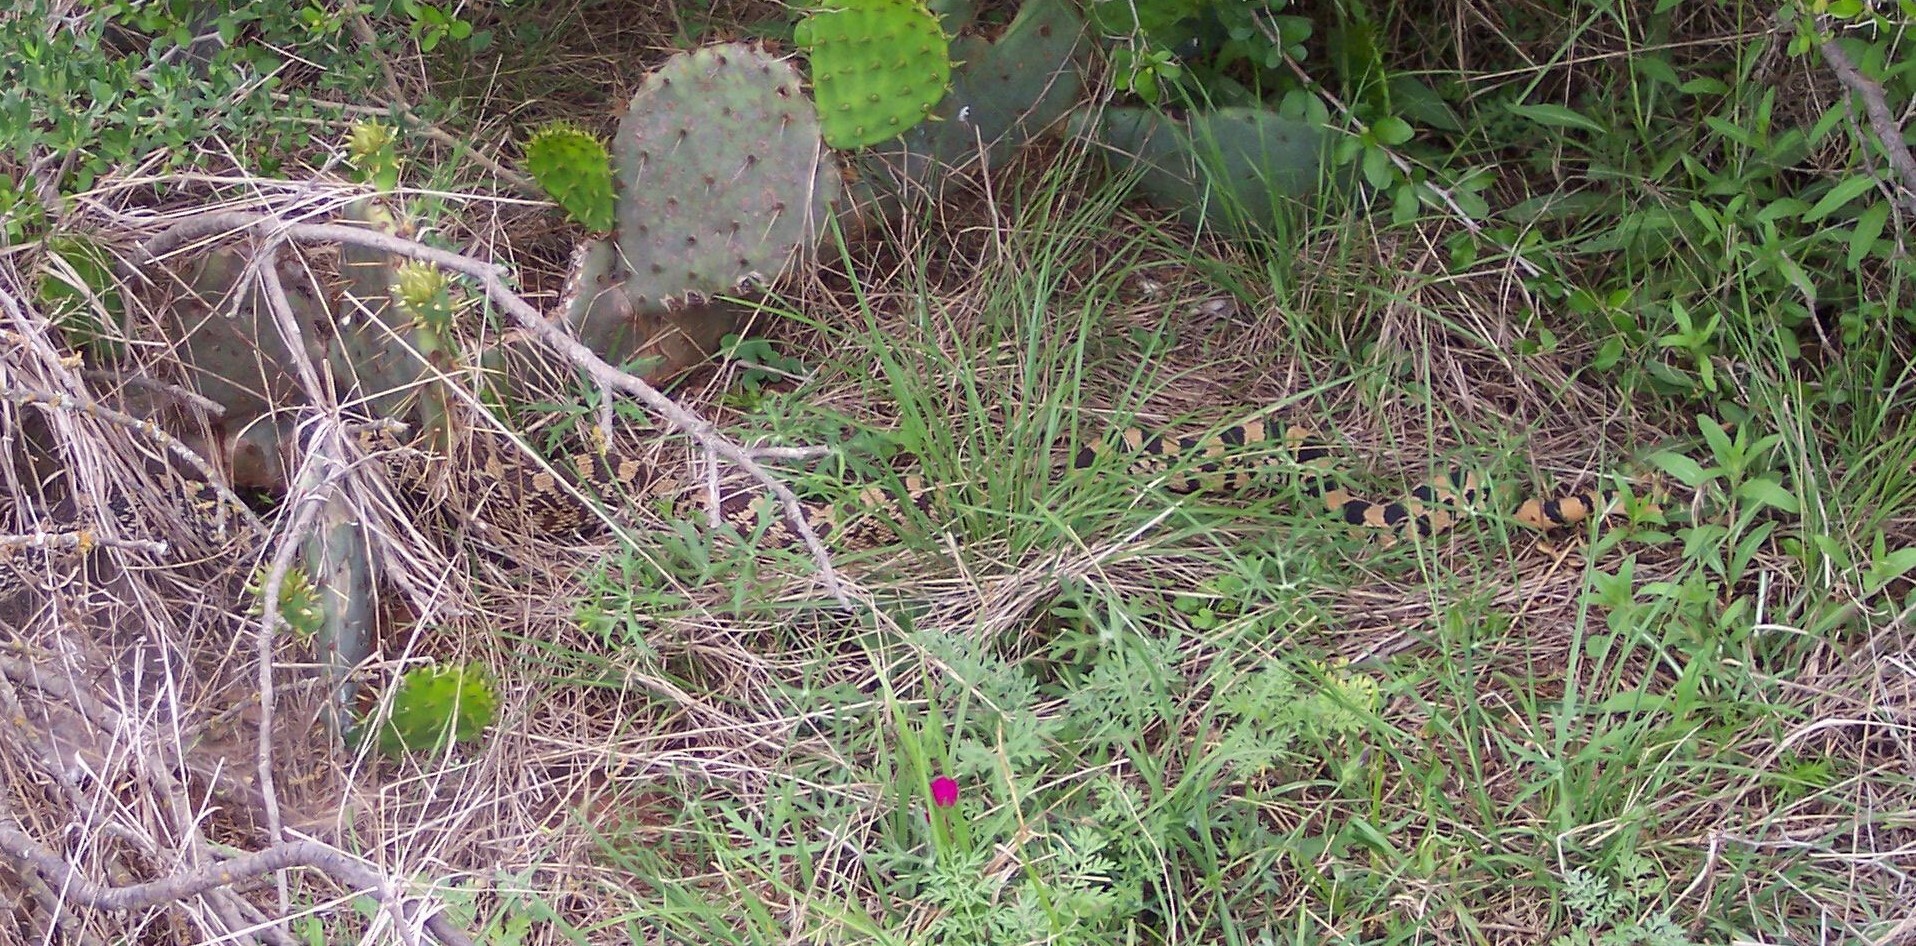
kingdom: Animalia
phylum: Chordata
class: Squamata
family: Colubridae
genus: Pituophis
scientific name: Pituophis catenifer
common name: Gopher snake
